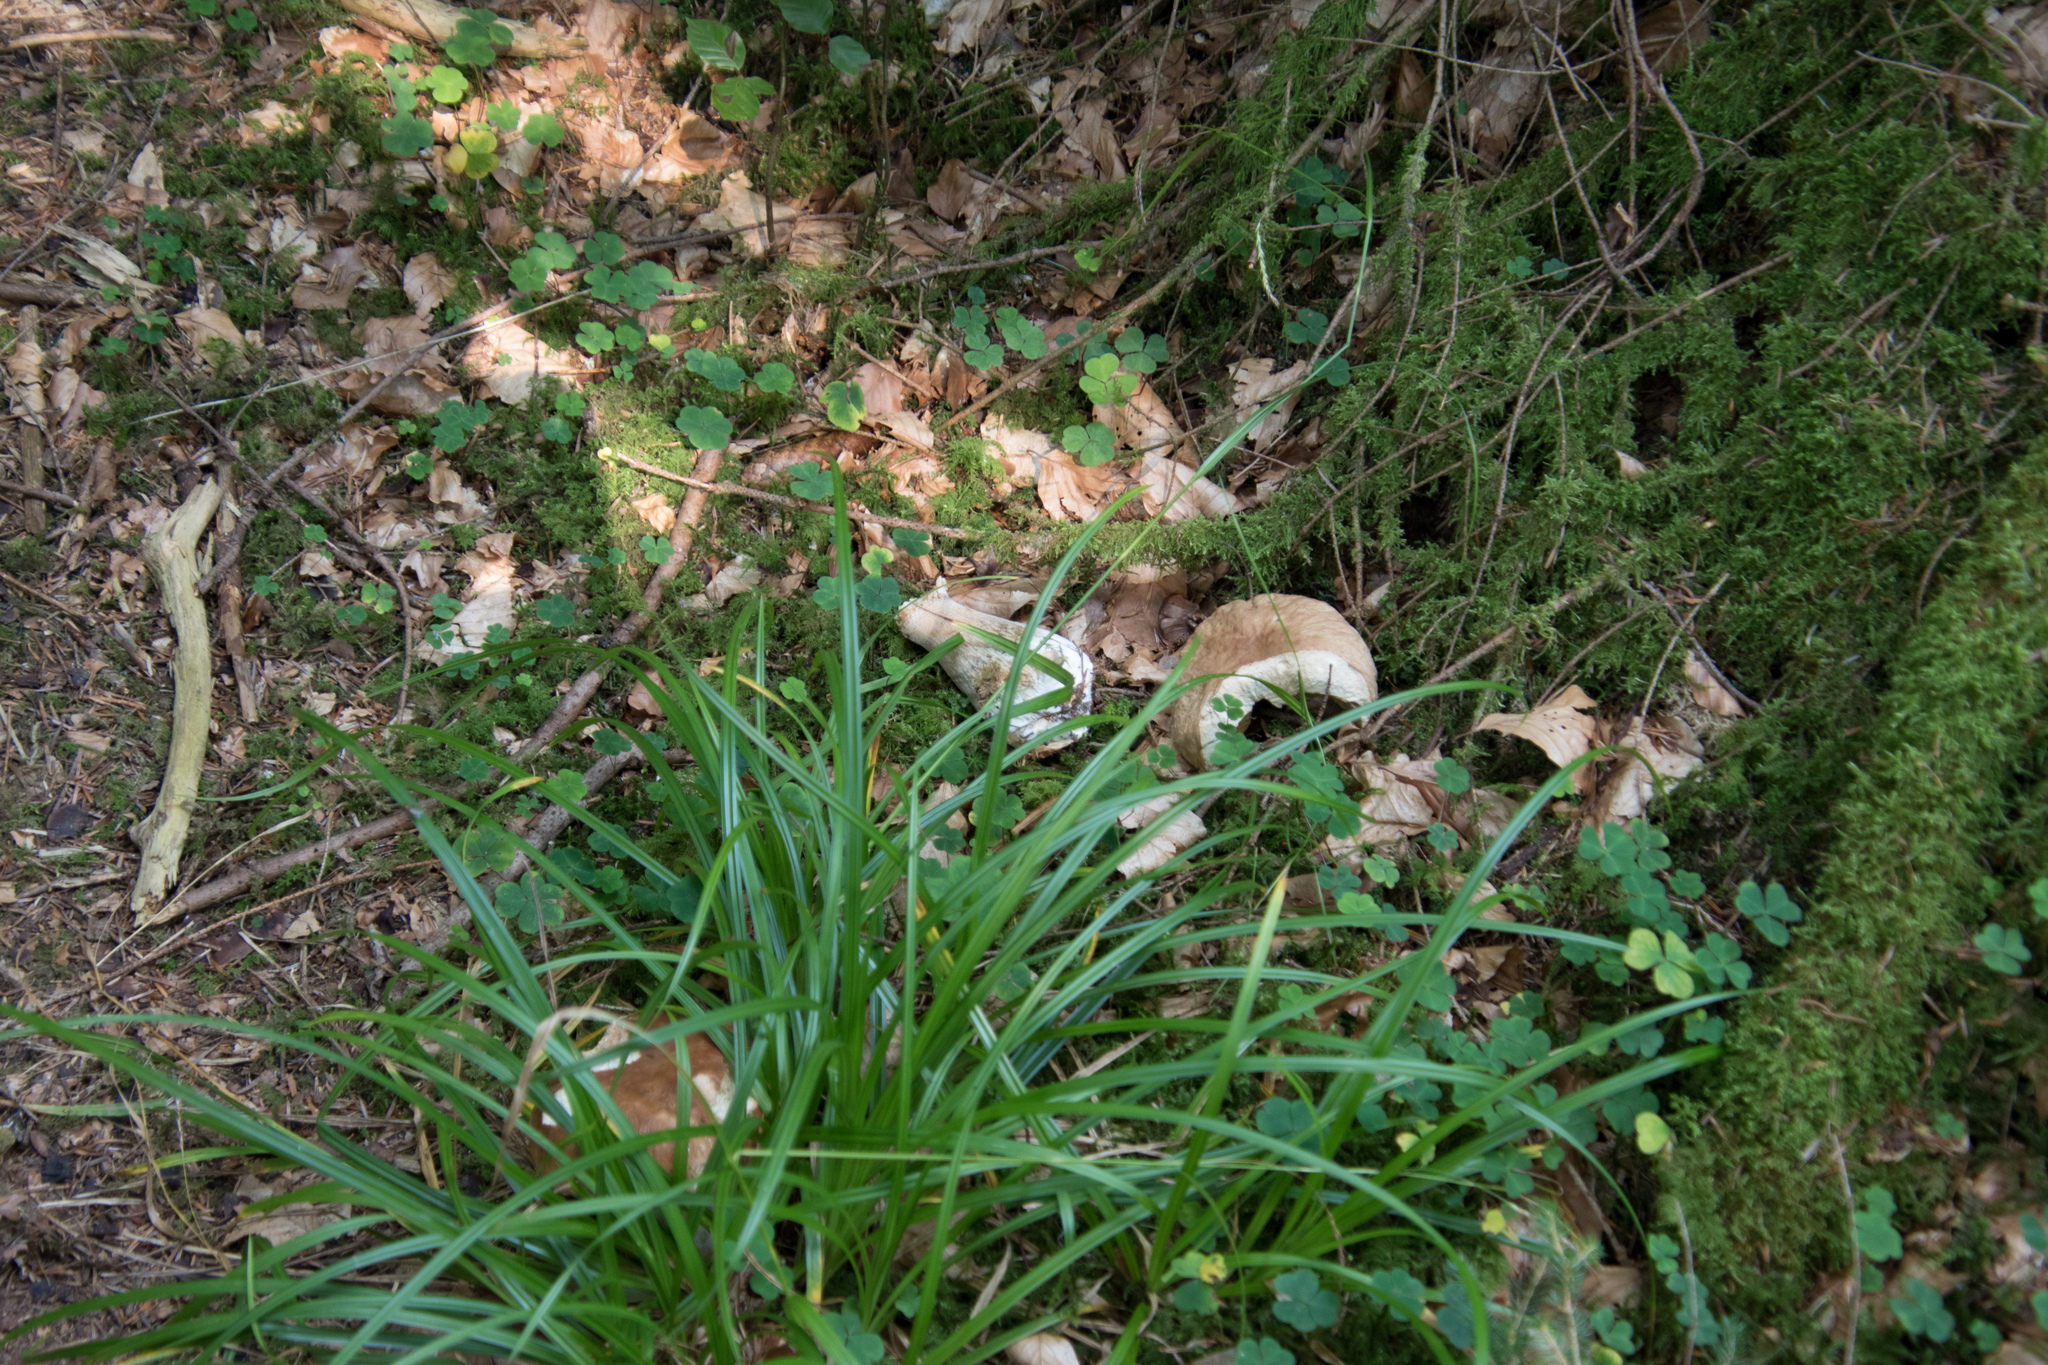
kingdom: Fungi
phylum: Basidiomycota
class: Agaricomycetes
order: Boletales
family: Boletaceae
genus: Boletus
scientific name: Boletus edulis
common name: Cep
